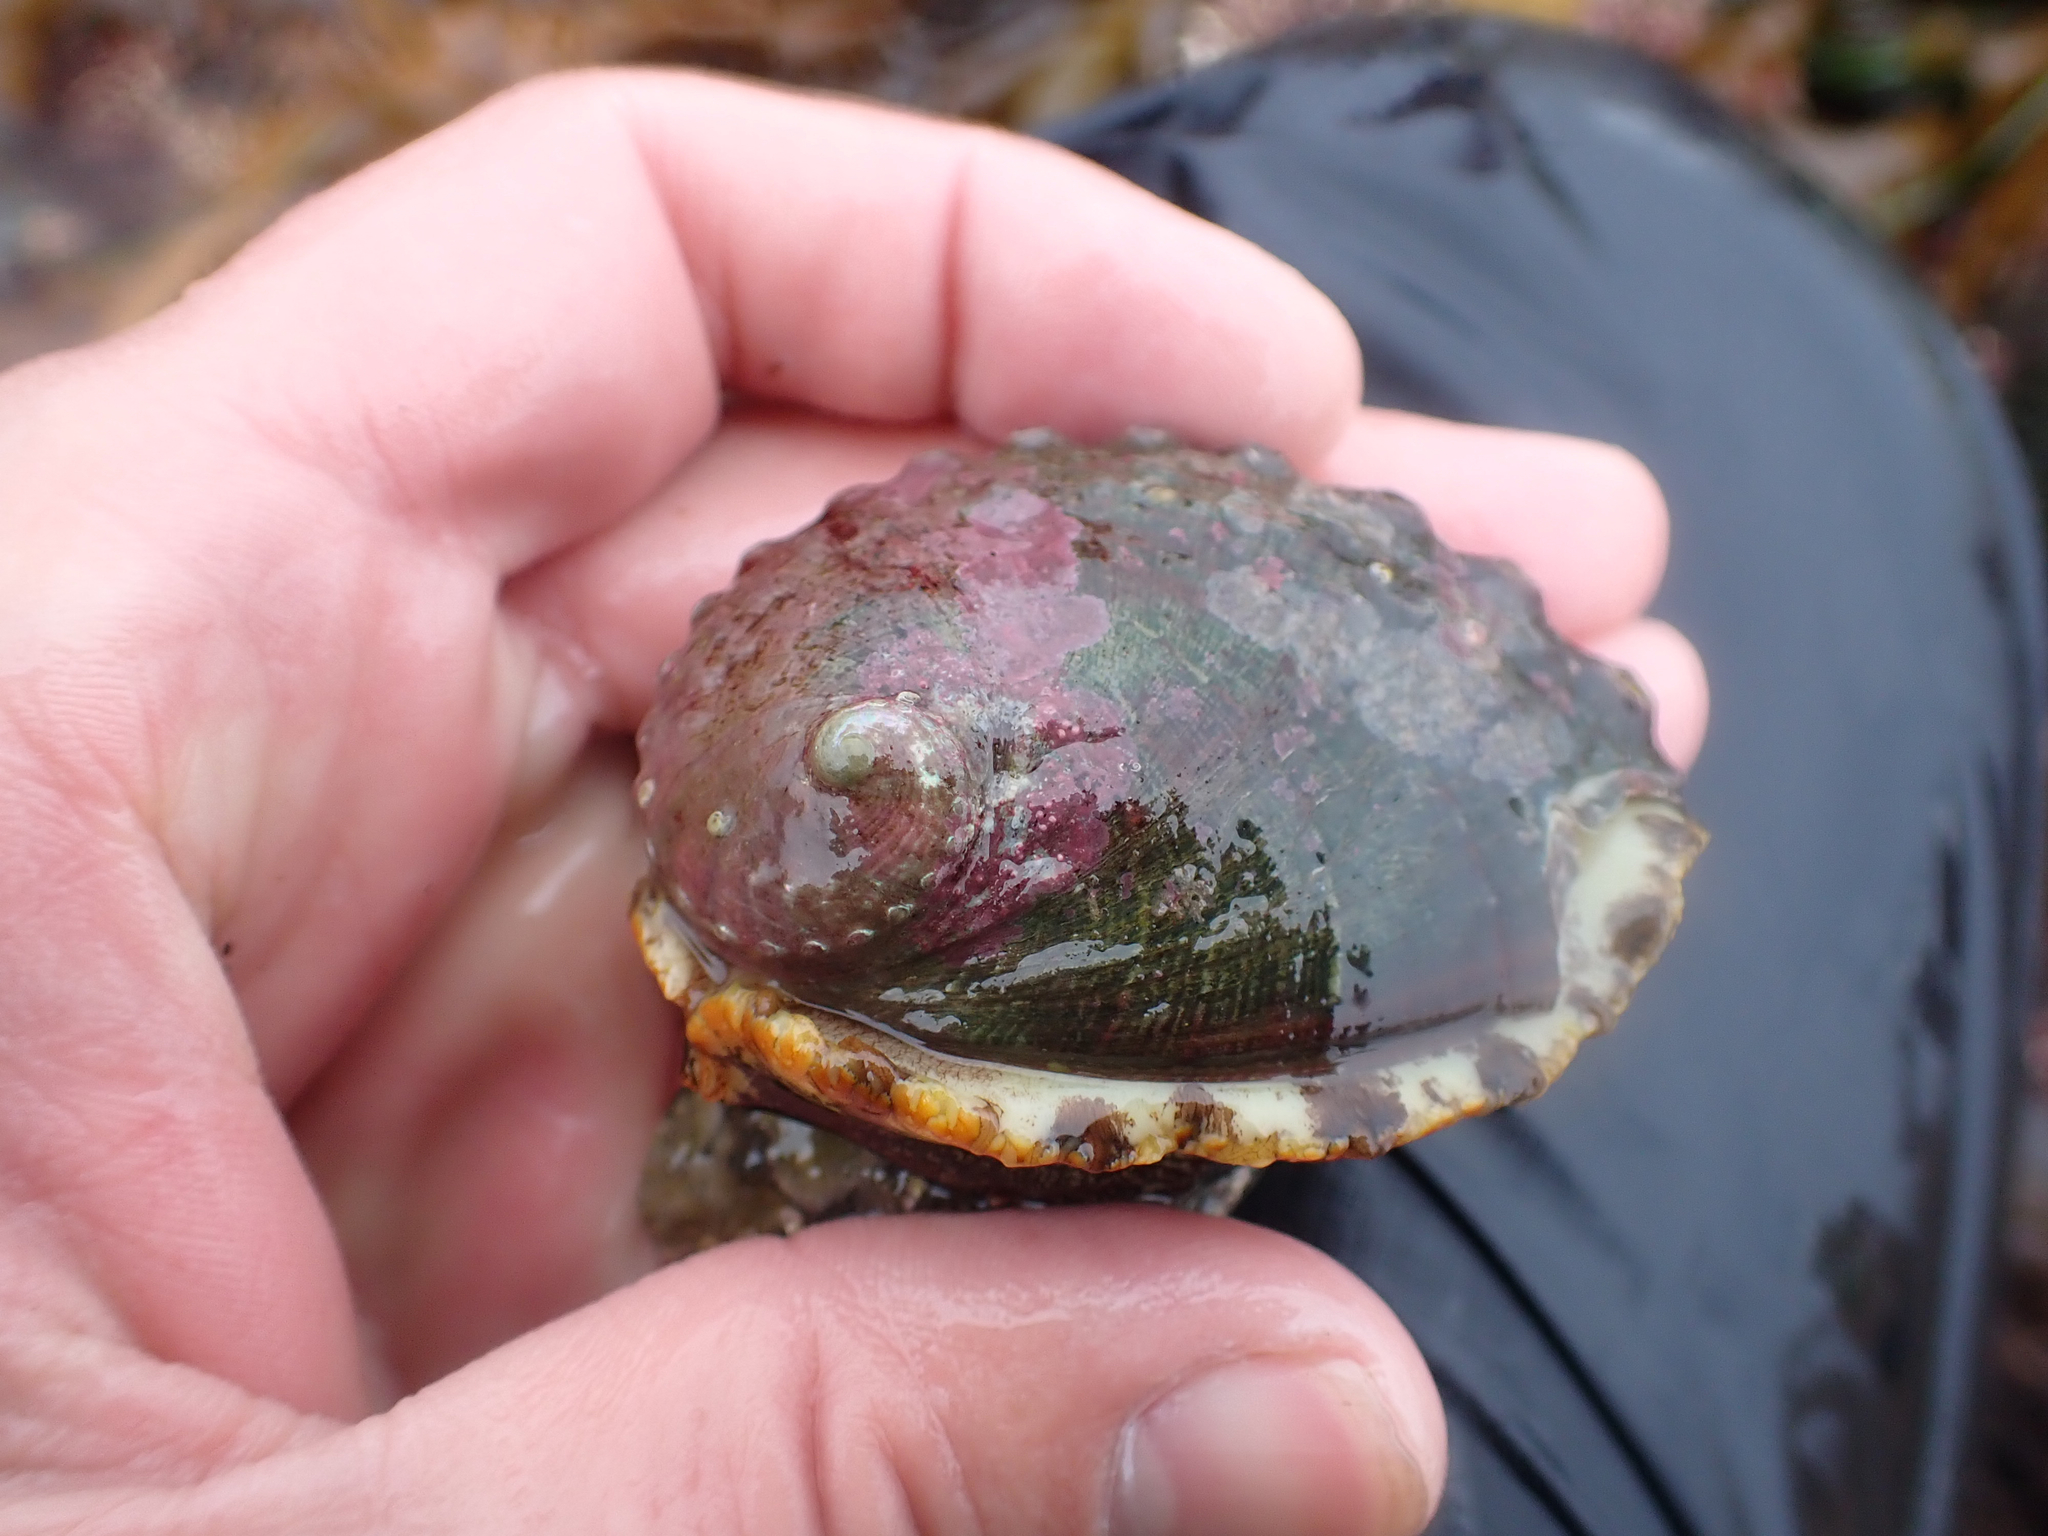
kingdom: Animalia
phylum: Mollusca
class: Gastropoda
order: Lepetellida
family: Haliotidae
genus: Haliotis
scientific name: Haliotis kamtschatkana
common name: Pinto abalone
